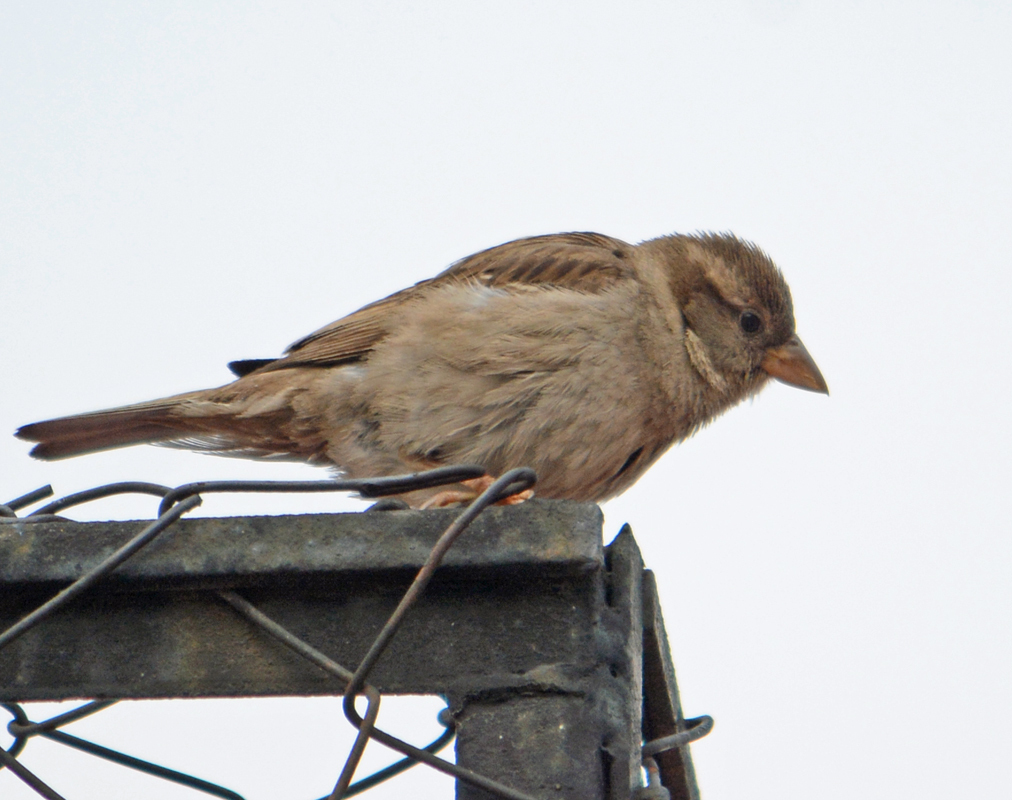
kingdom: Animalia
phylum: Chordata
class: Aves
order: Passeriformes
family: Passeridae
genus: Passer
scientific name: Passer domesticus
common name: House sparrow
